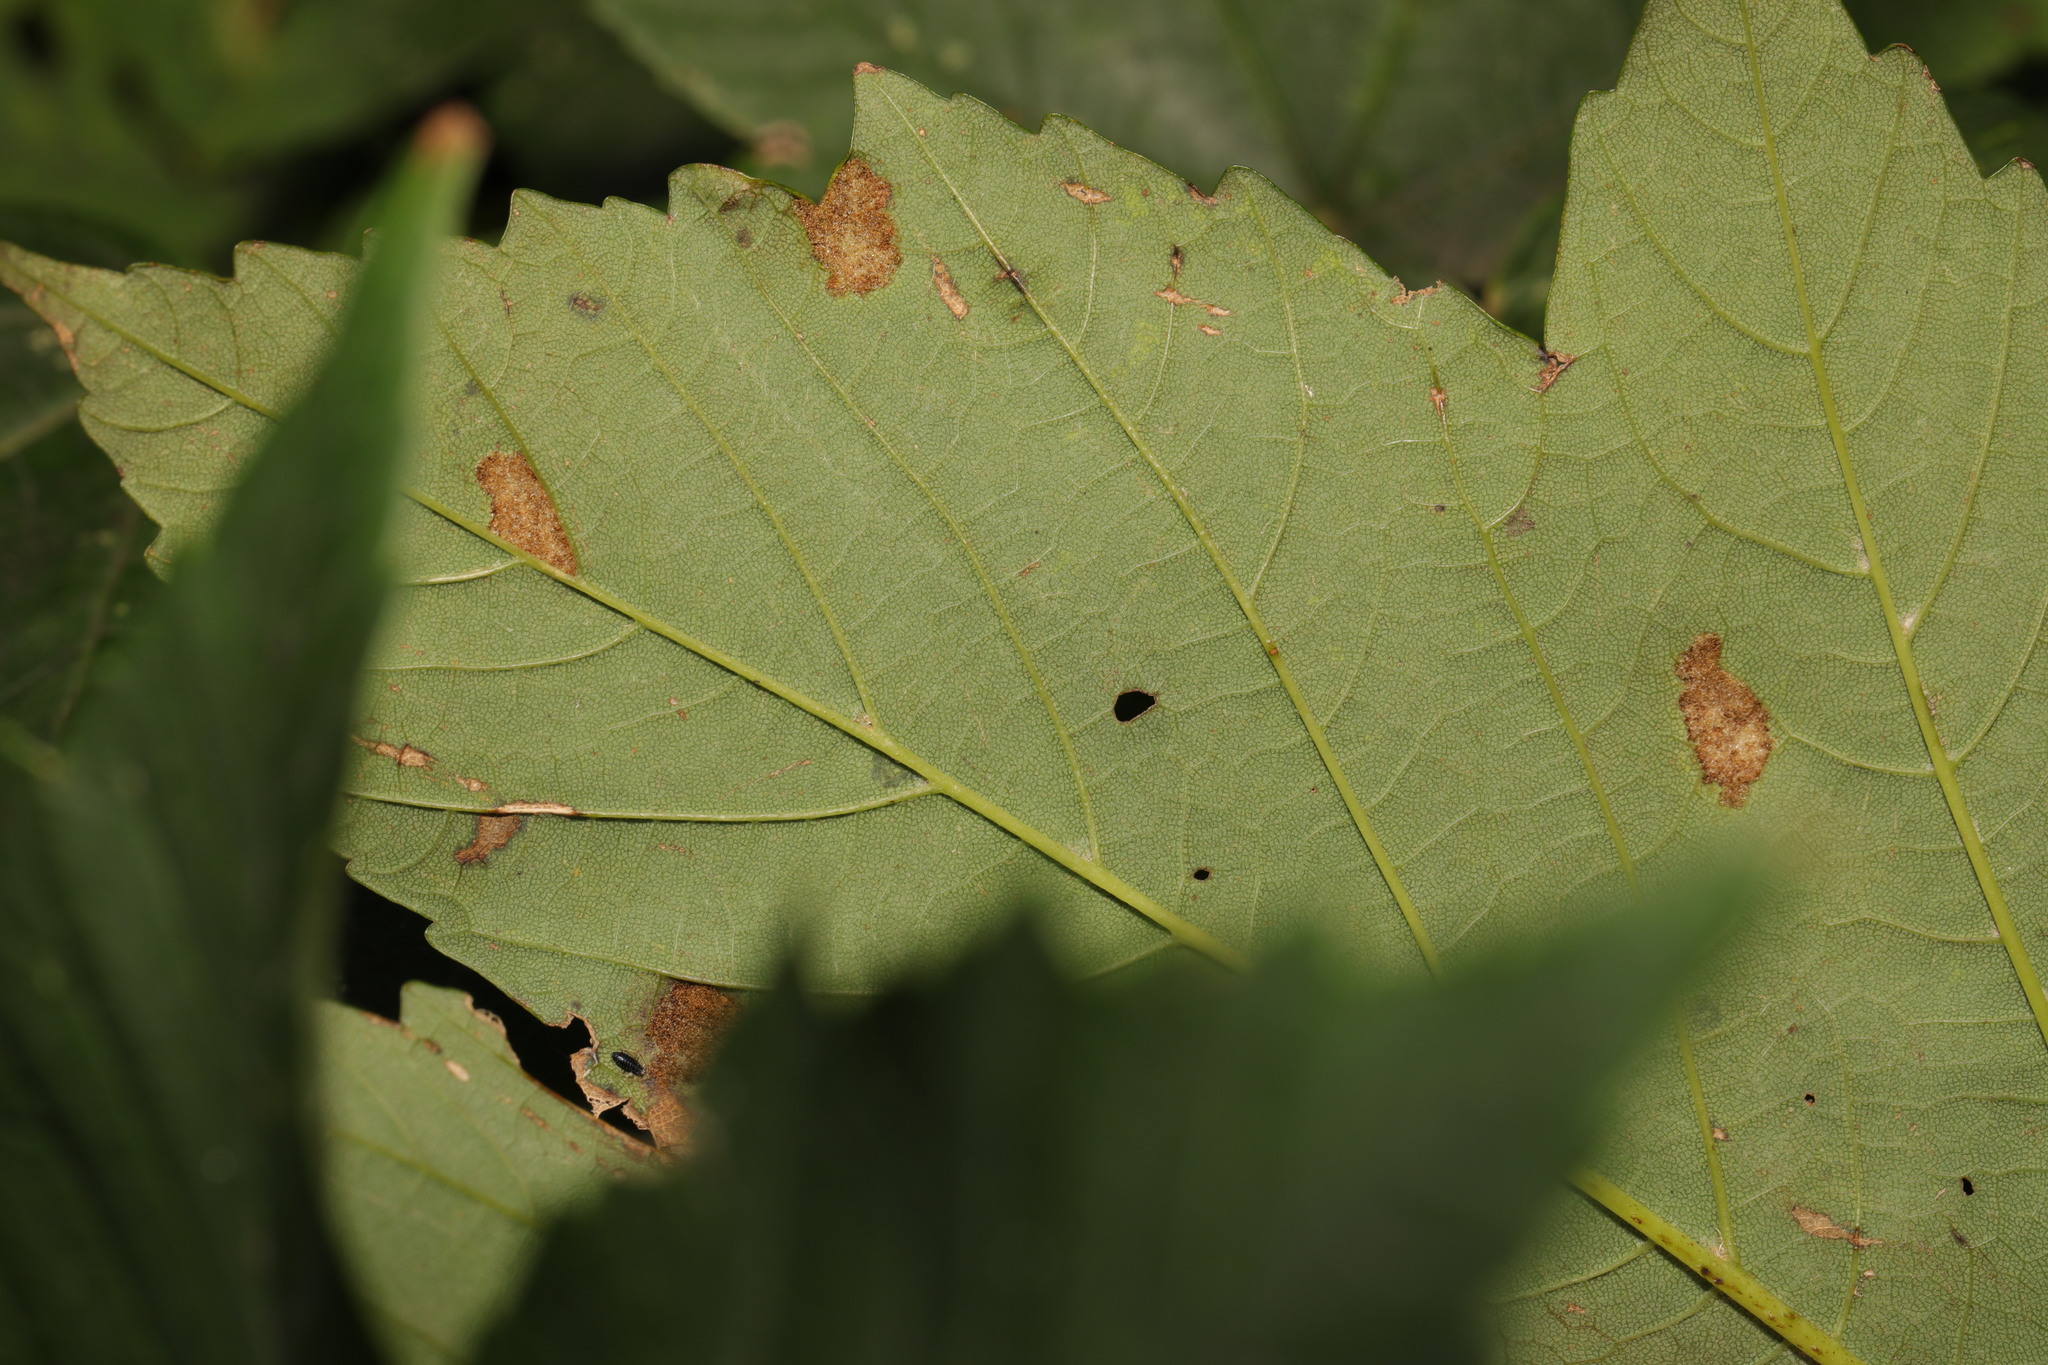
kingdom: Animalia
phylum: Arthropoda
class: Arachnida
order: Trombidiformes
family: Eriophyidae
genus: Aceria
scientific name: Aceria pseudoplatani
